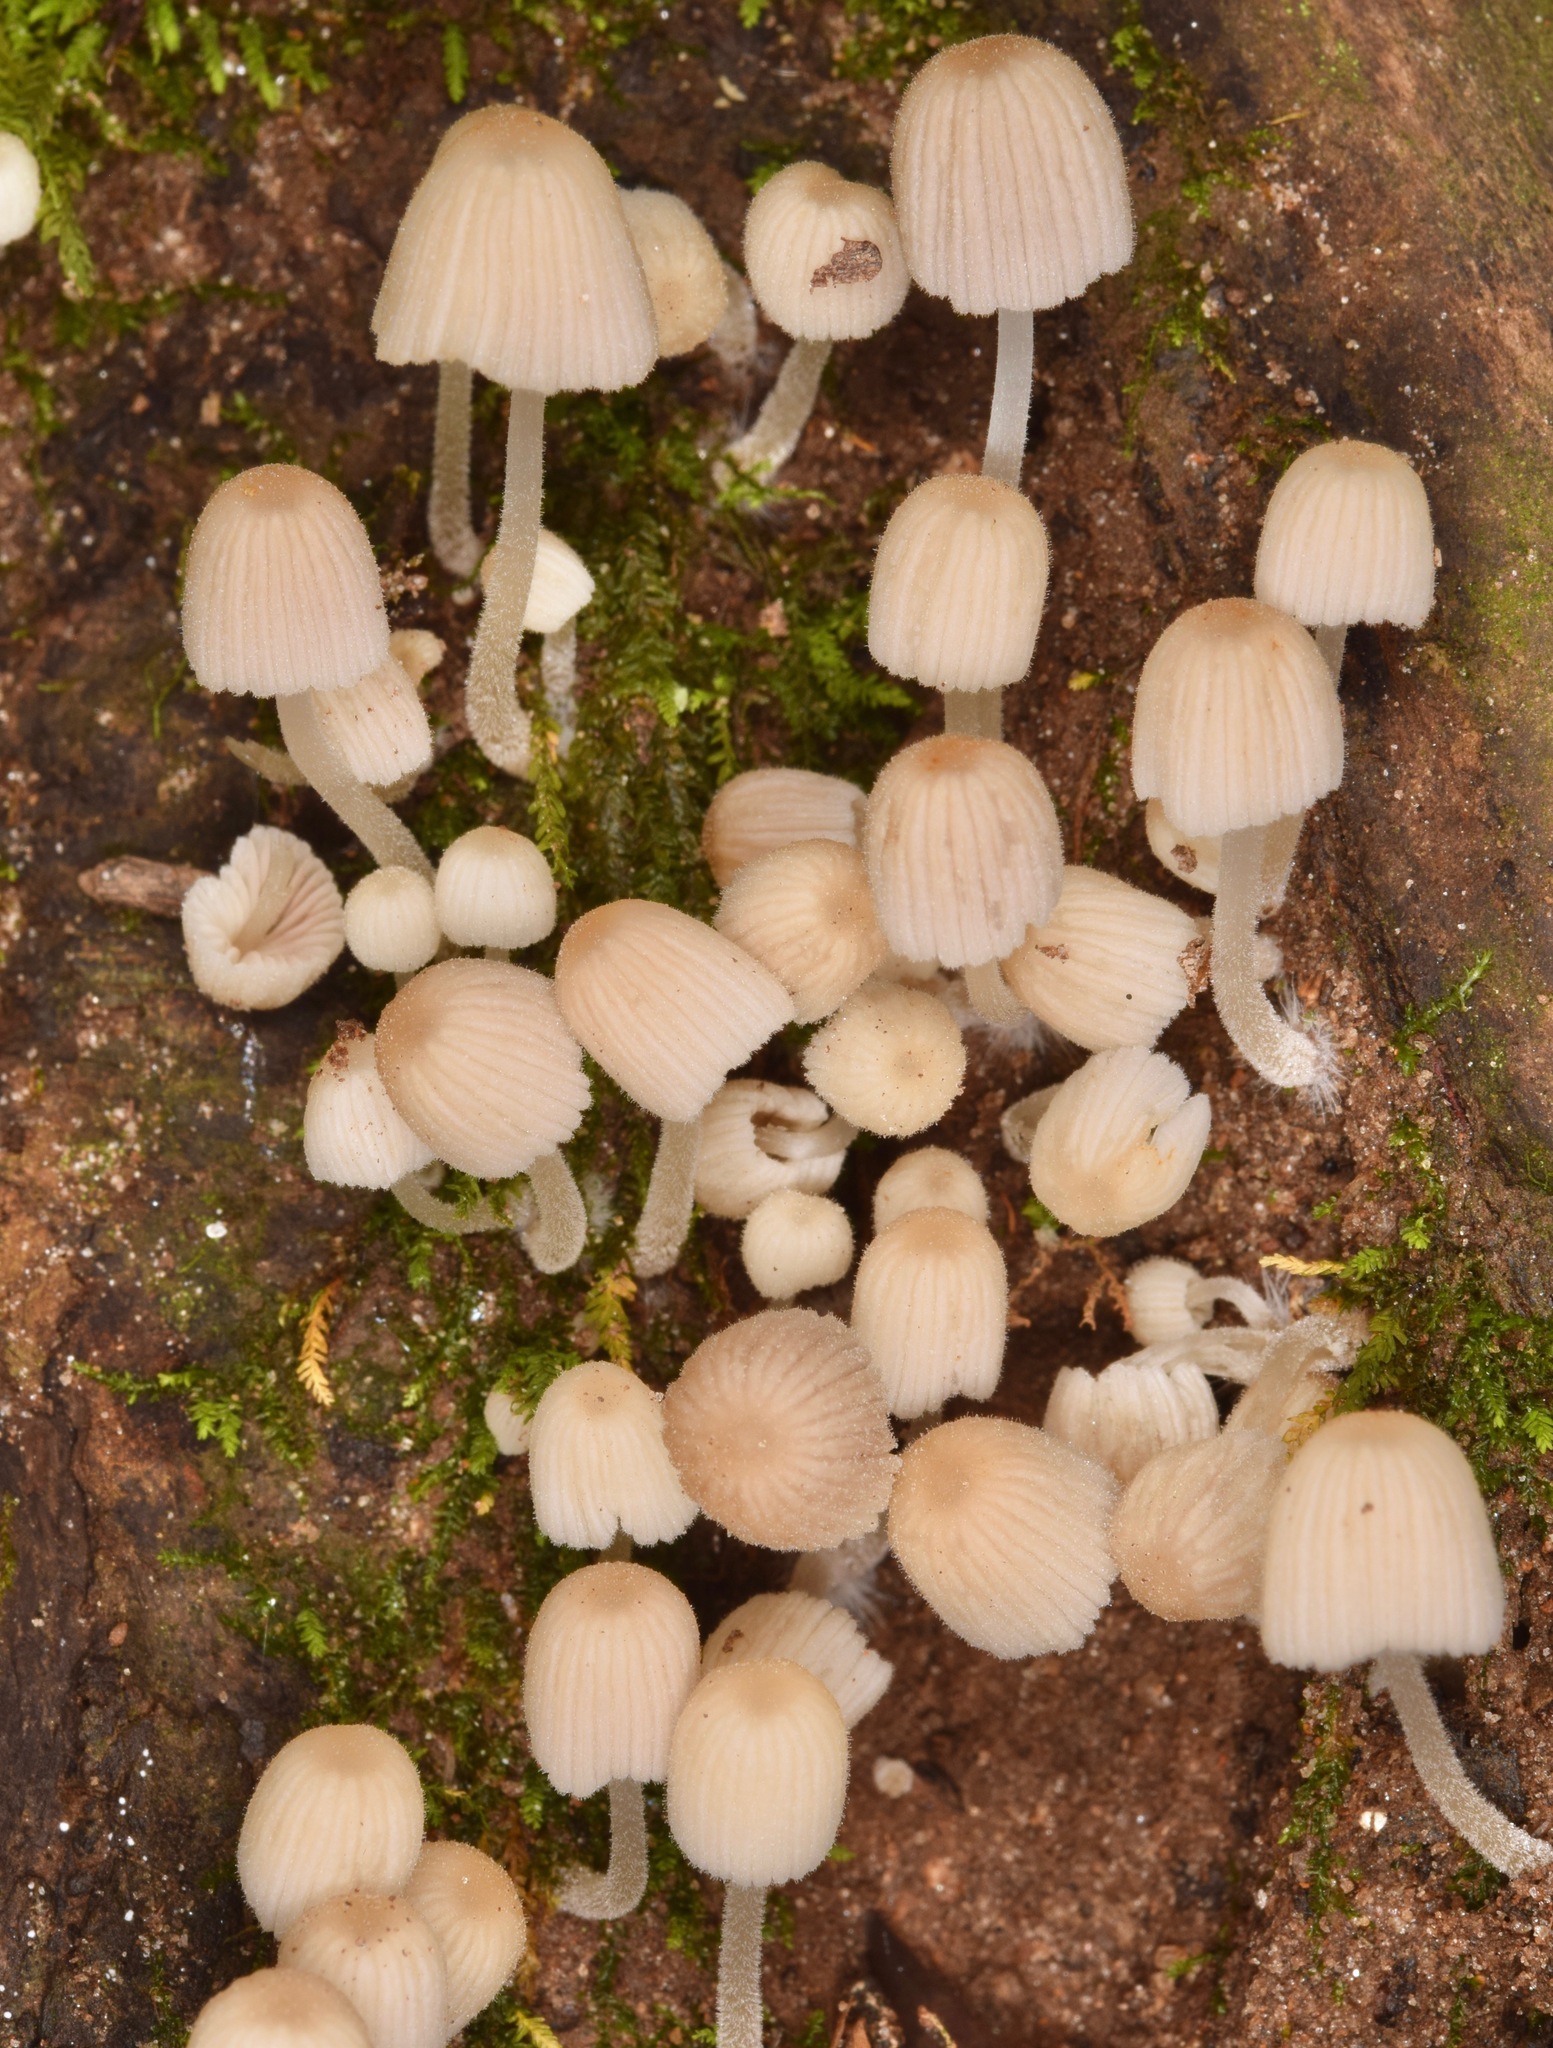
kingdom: Fungi
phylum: Basidiomycota
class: Agaricomycetes
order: Agaricales
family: Psathyrellaceae
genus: Coprinellus
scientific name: Coprinellus disseminatus
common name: Fairies' bonnets
